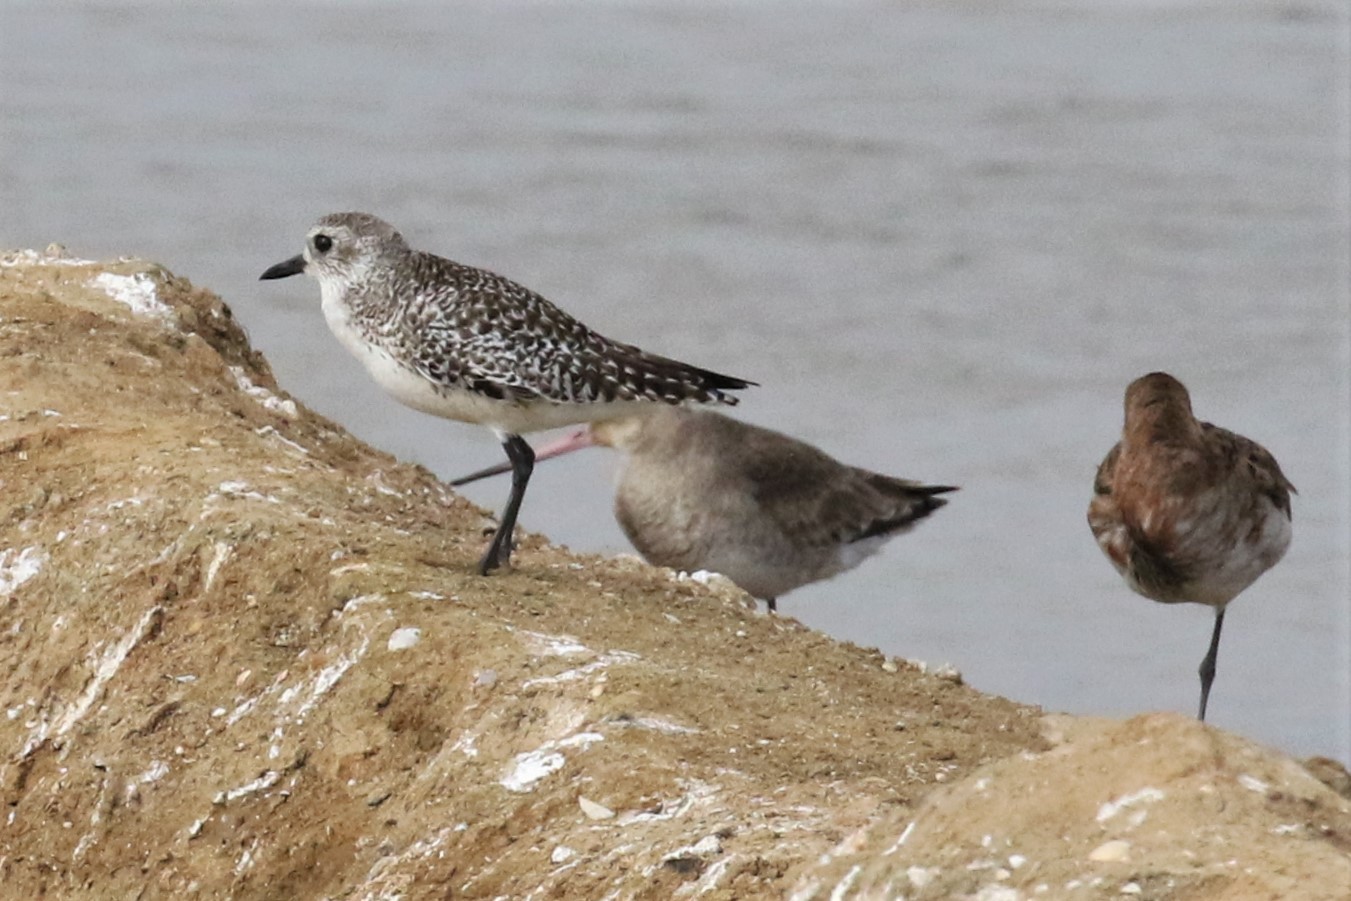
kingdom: Animalia
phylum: Chordata
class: Aves
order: Charadriiformes
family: Charadriidae
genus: Pluvialis
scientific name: Pluvialis squatarola
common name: Grey plover
